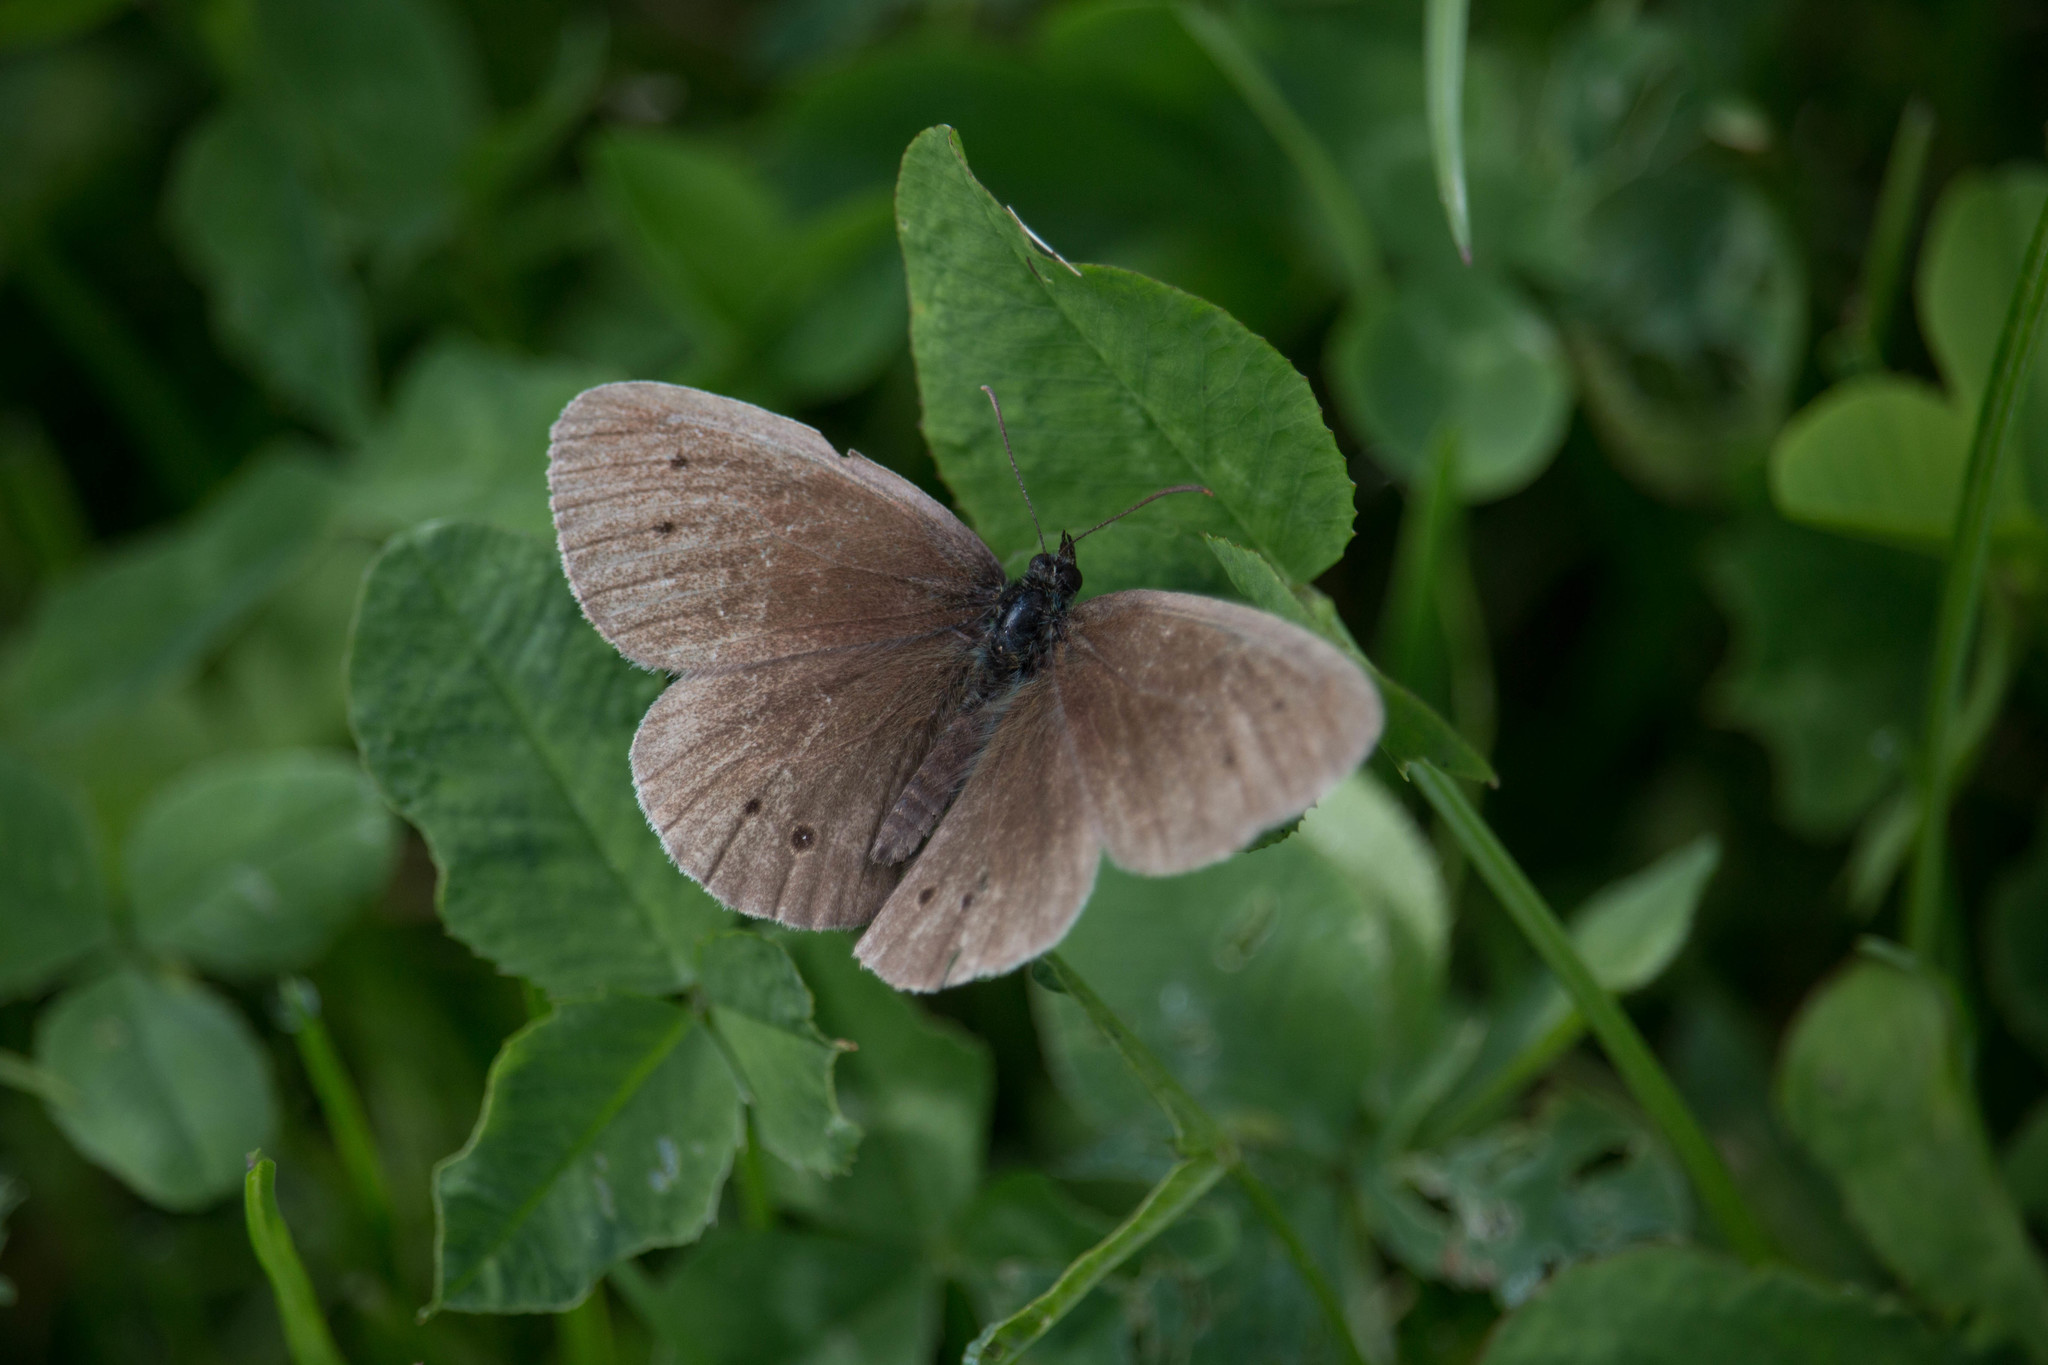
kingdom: Animalia
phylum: Arthropoda
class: Insecta
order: Lepidoptera
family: Nymphalidae
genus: Aphantopus
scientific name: Aphantopus hyperantus
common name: Ringlet
